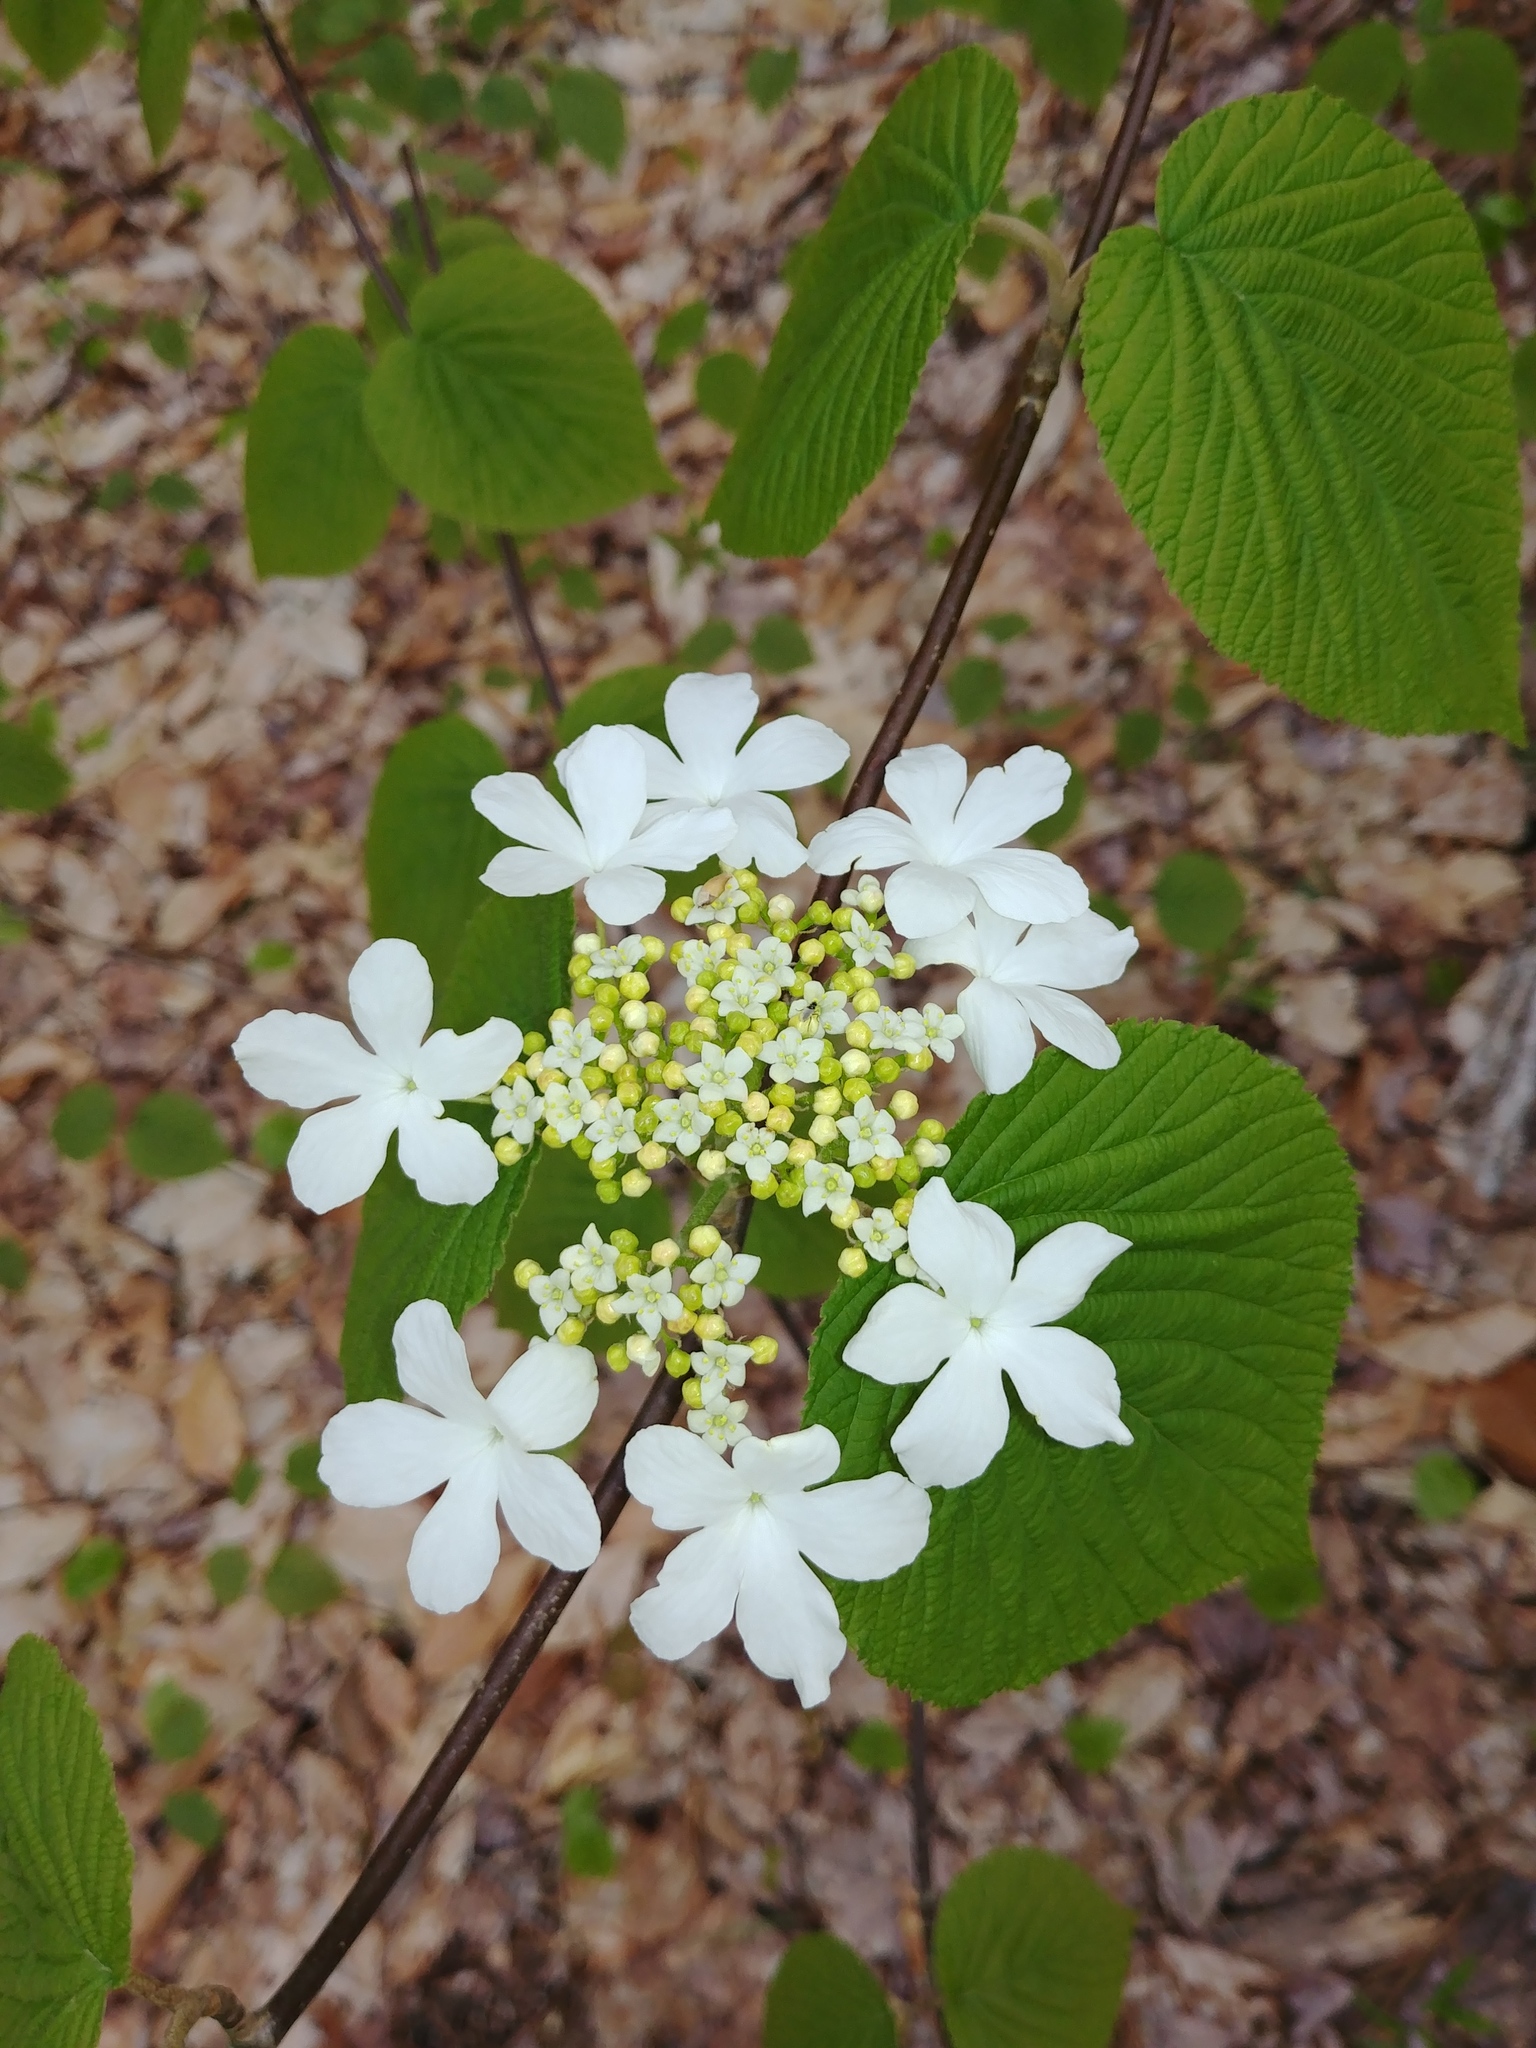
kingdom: Plantae
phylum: Tracheophyta
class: Magnoliopsida
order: Dipsacales
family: Viburnaceae
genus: Viburnum
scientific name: Viburnum lantanoides
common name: Hobblebush
